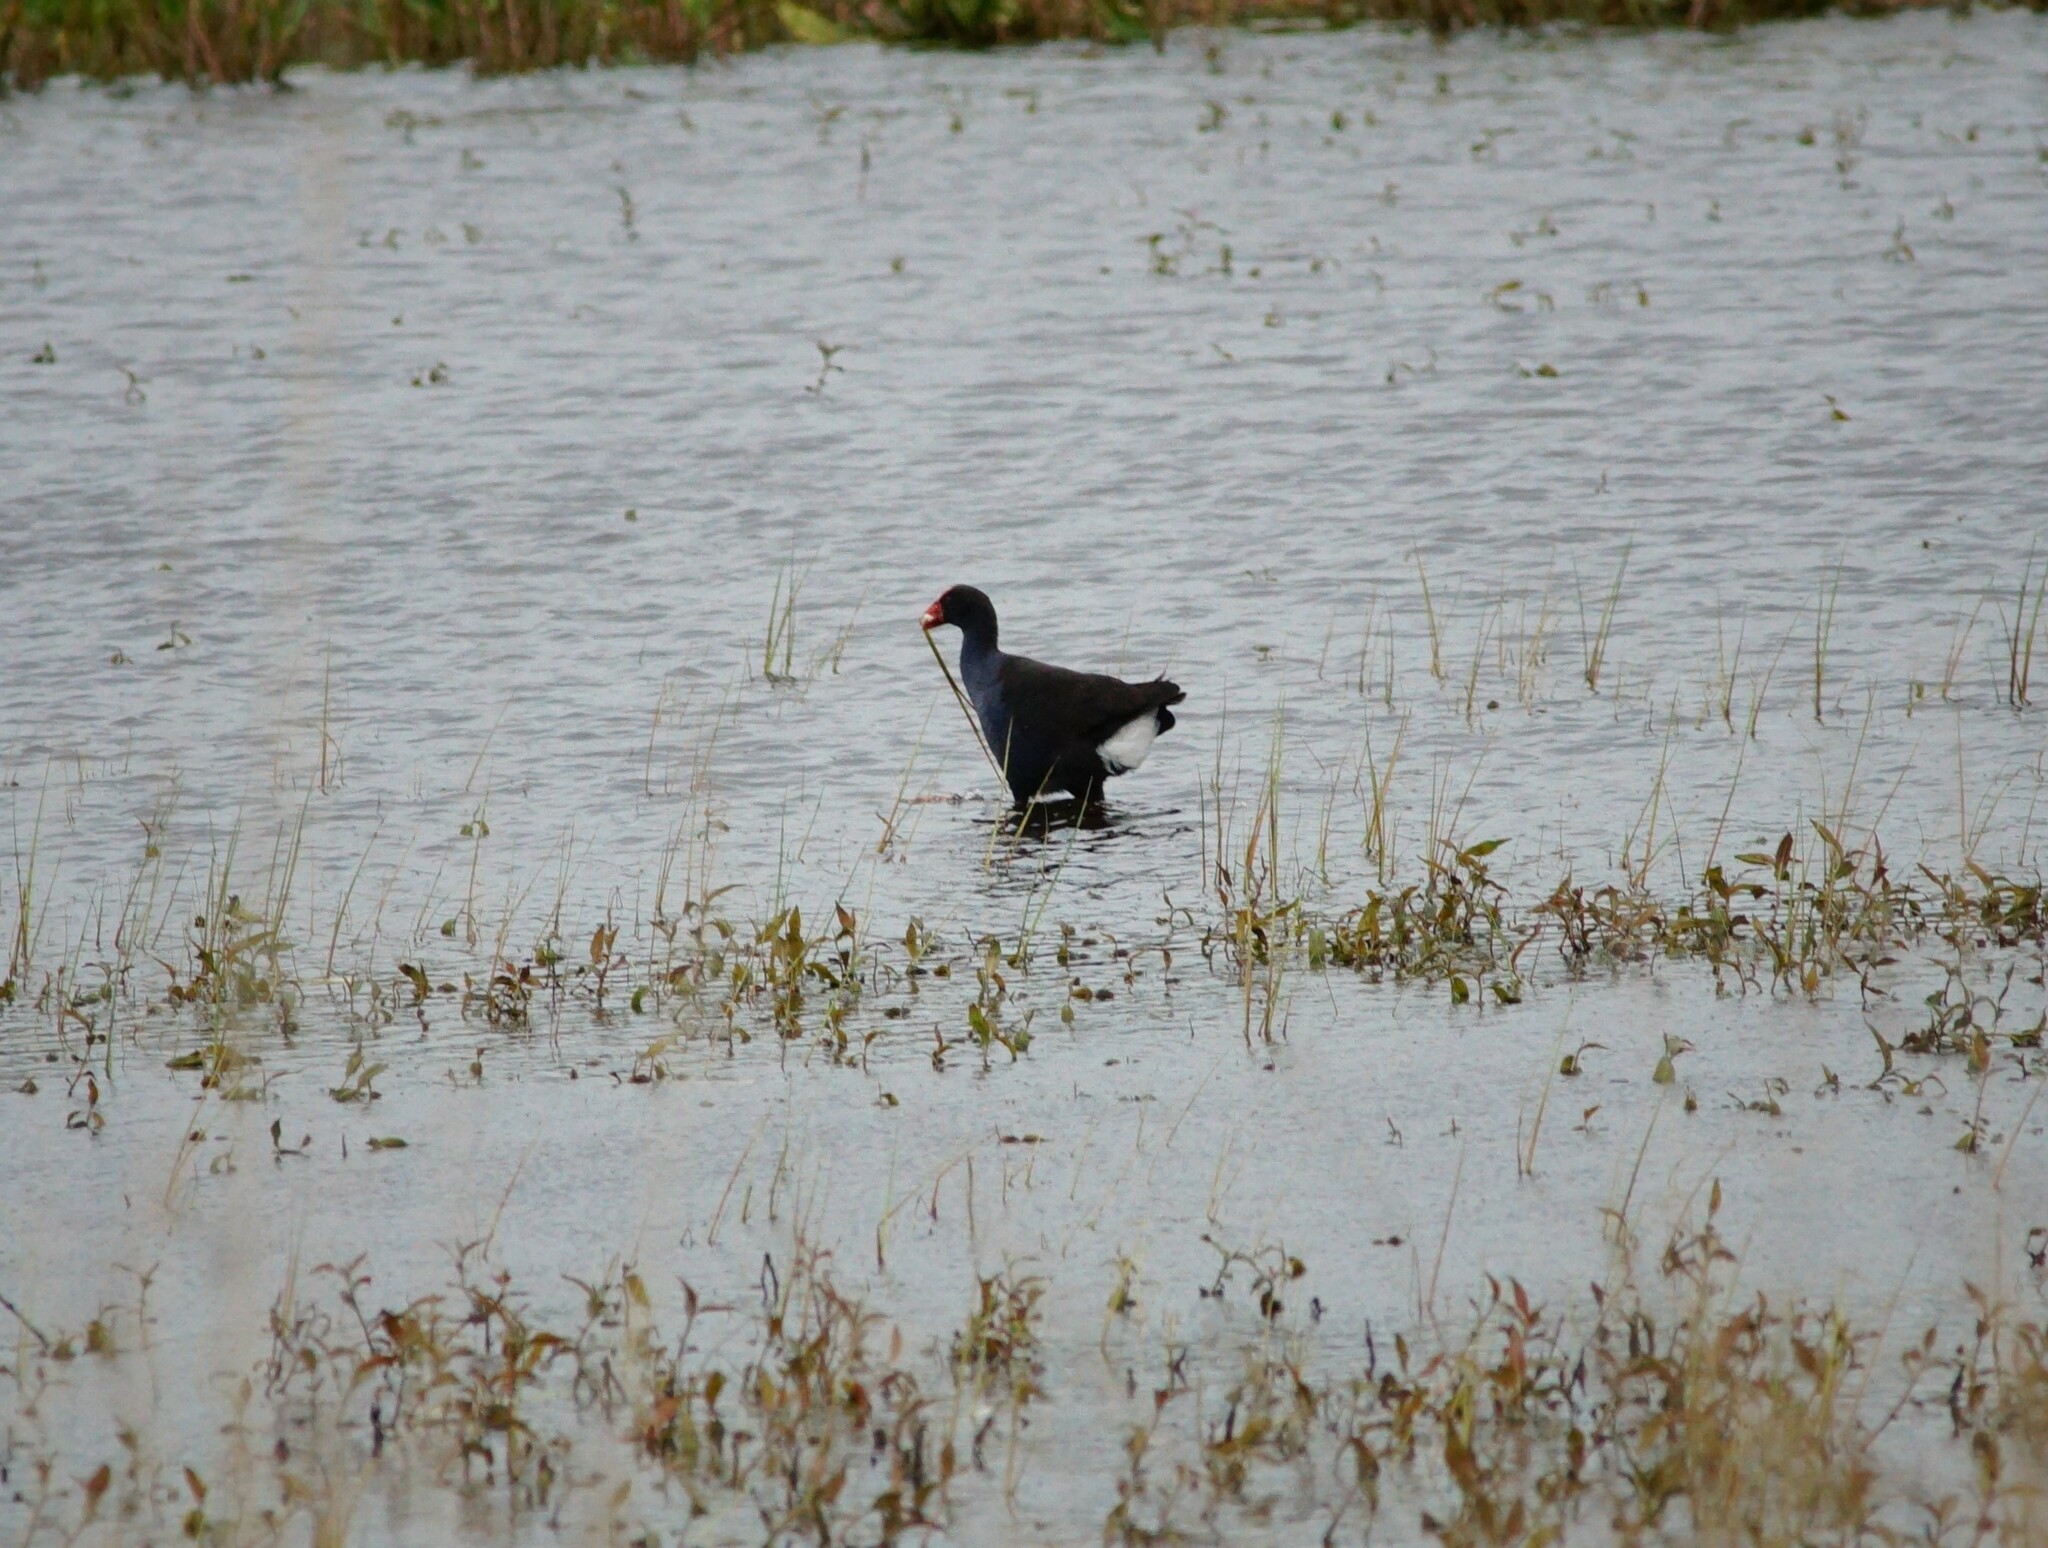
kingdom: Animalia
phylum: Chordata
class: Aves
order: Gruiformes
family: Rallidae
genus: Porphyrio
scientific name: Porphyrio melanotus
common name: Australasian swamphen
